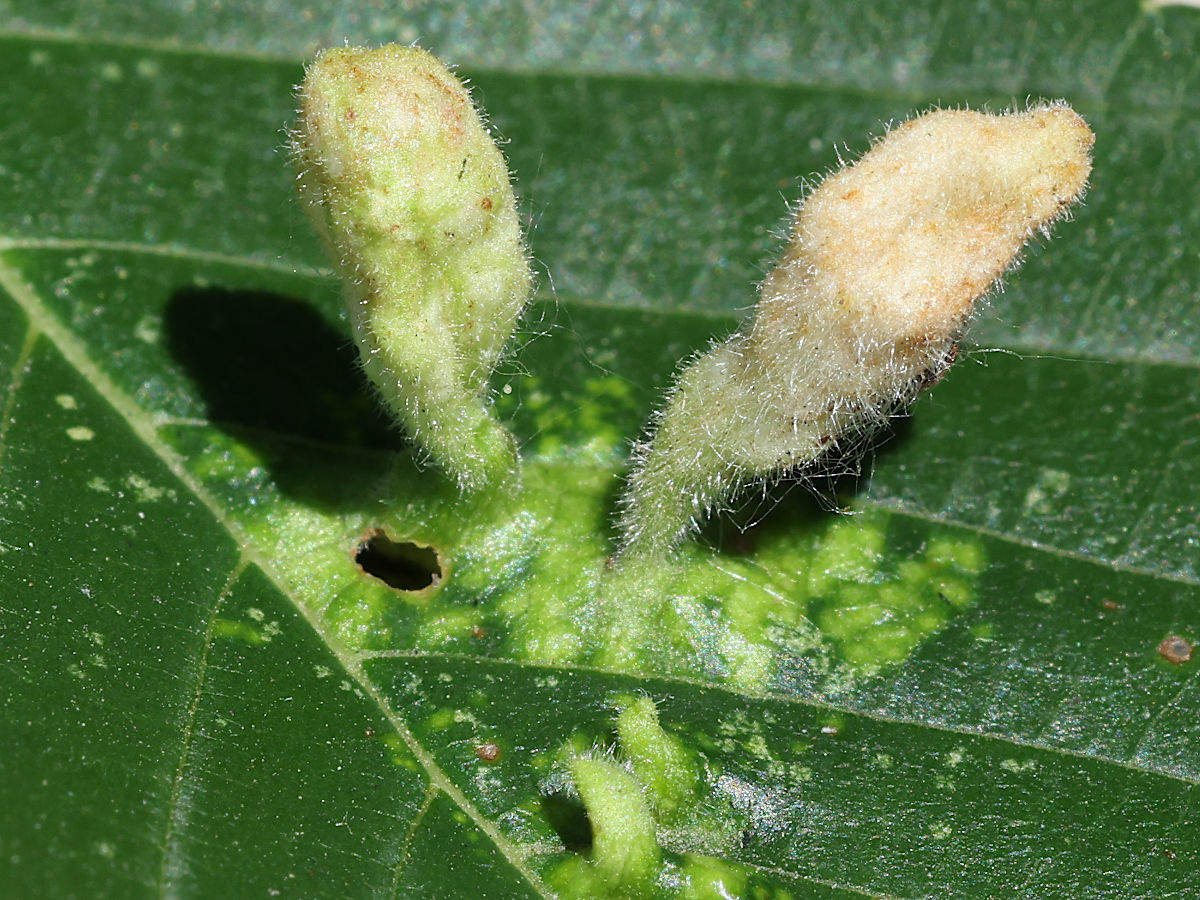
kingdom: Animalia
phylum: Arthropoda
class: Insecta
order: Hemiptera
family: Aphididae
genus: Tetraneura
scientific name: Tetraneura nigriabdominalis
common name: Aphid
